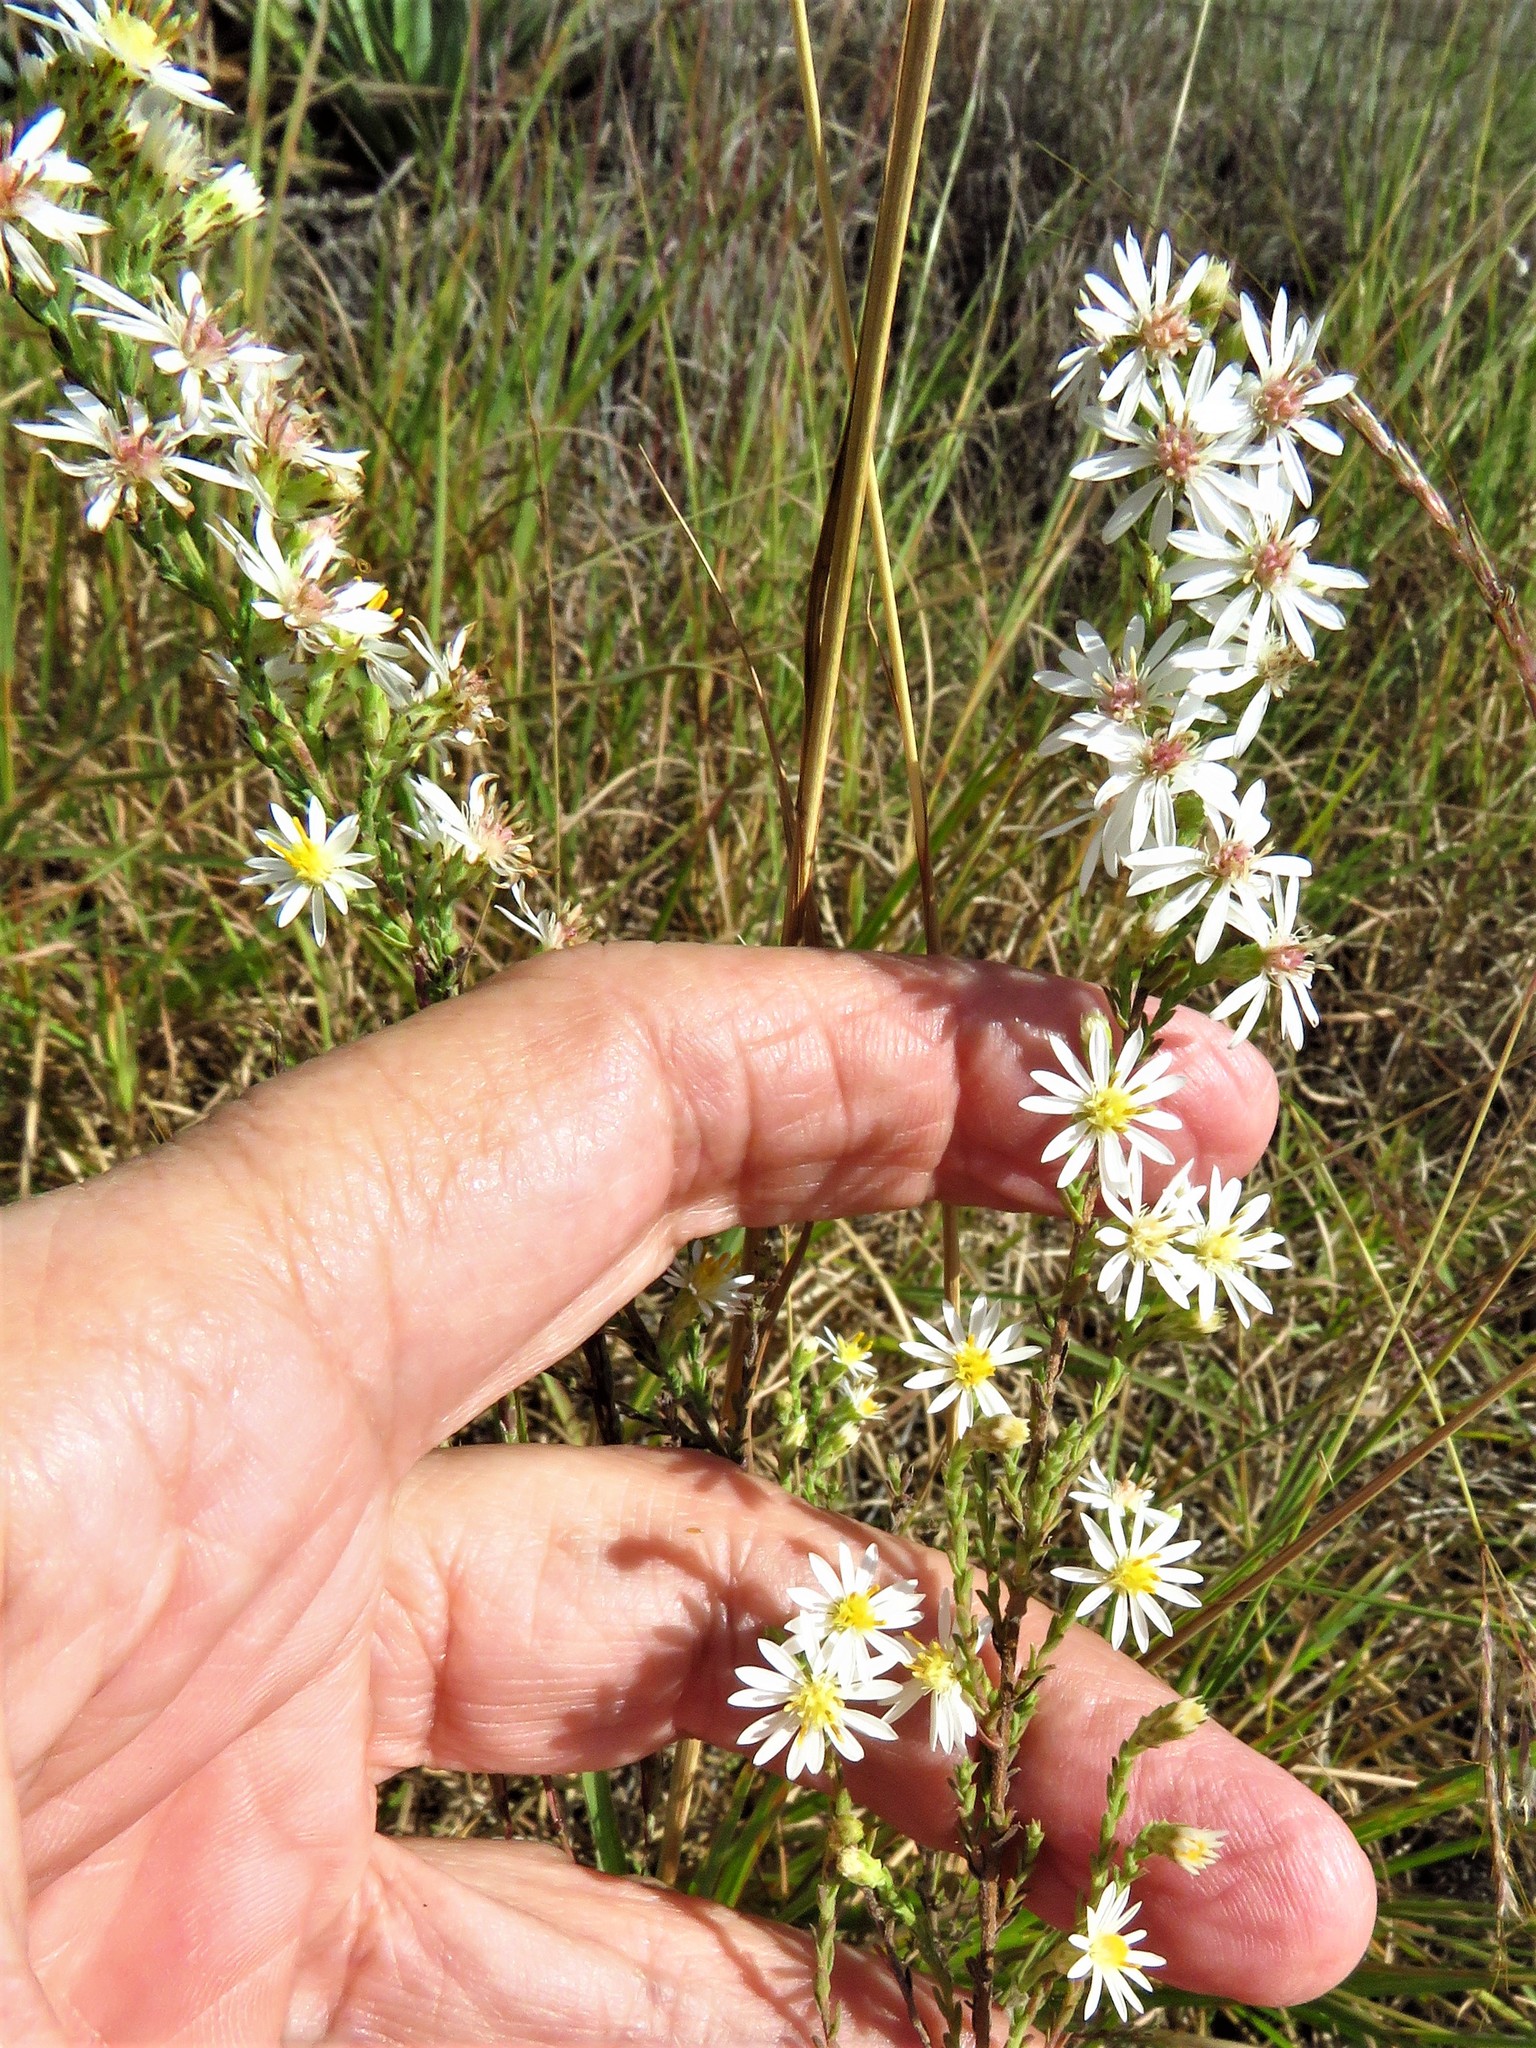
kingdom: Plantae
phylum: Tracheophyta
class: Magnoliopsida
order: Asterales
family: Asteraceae
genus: Symphyotrichum
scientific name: Symphyotrichum ericoides
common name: Heath aster
